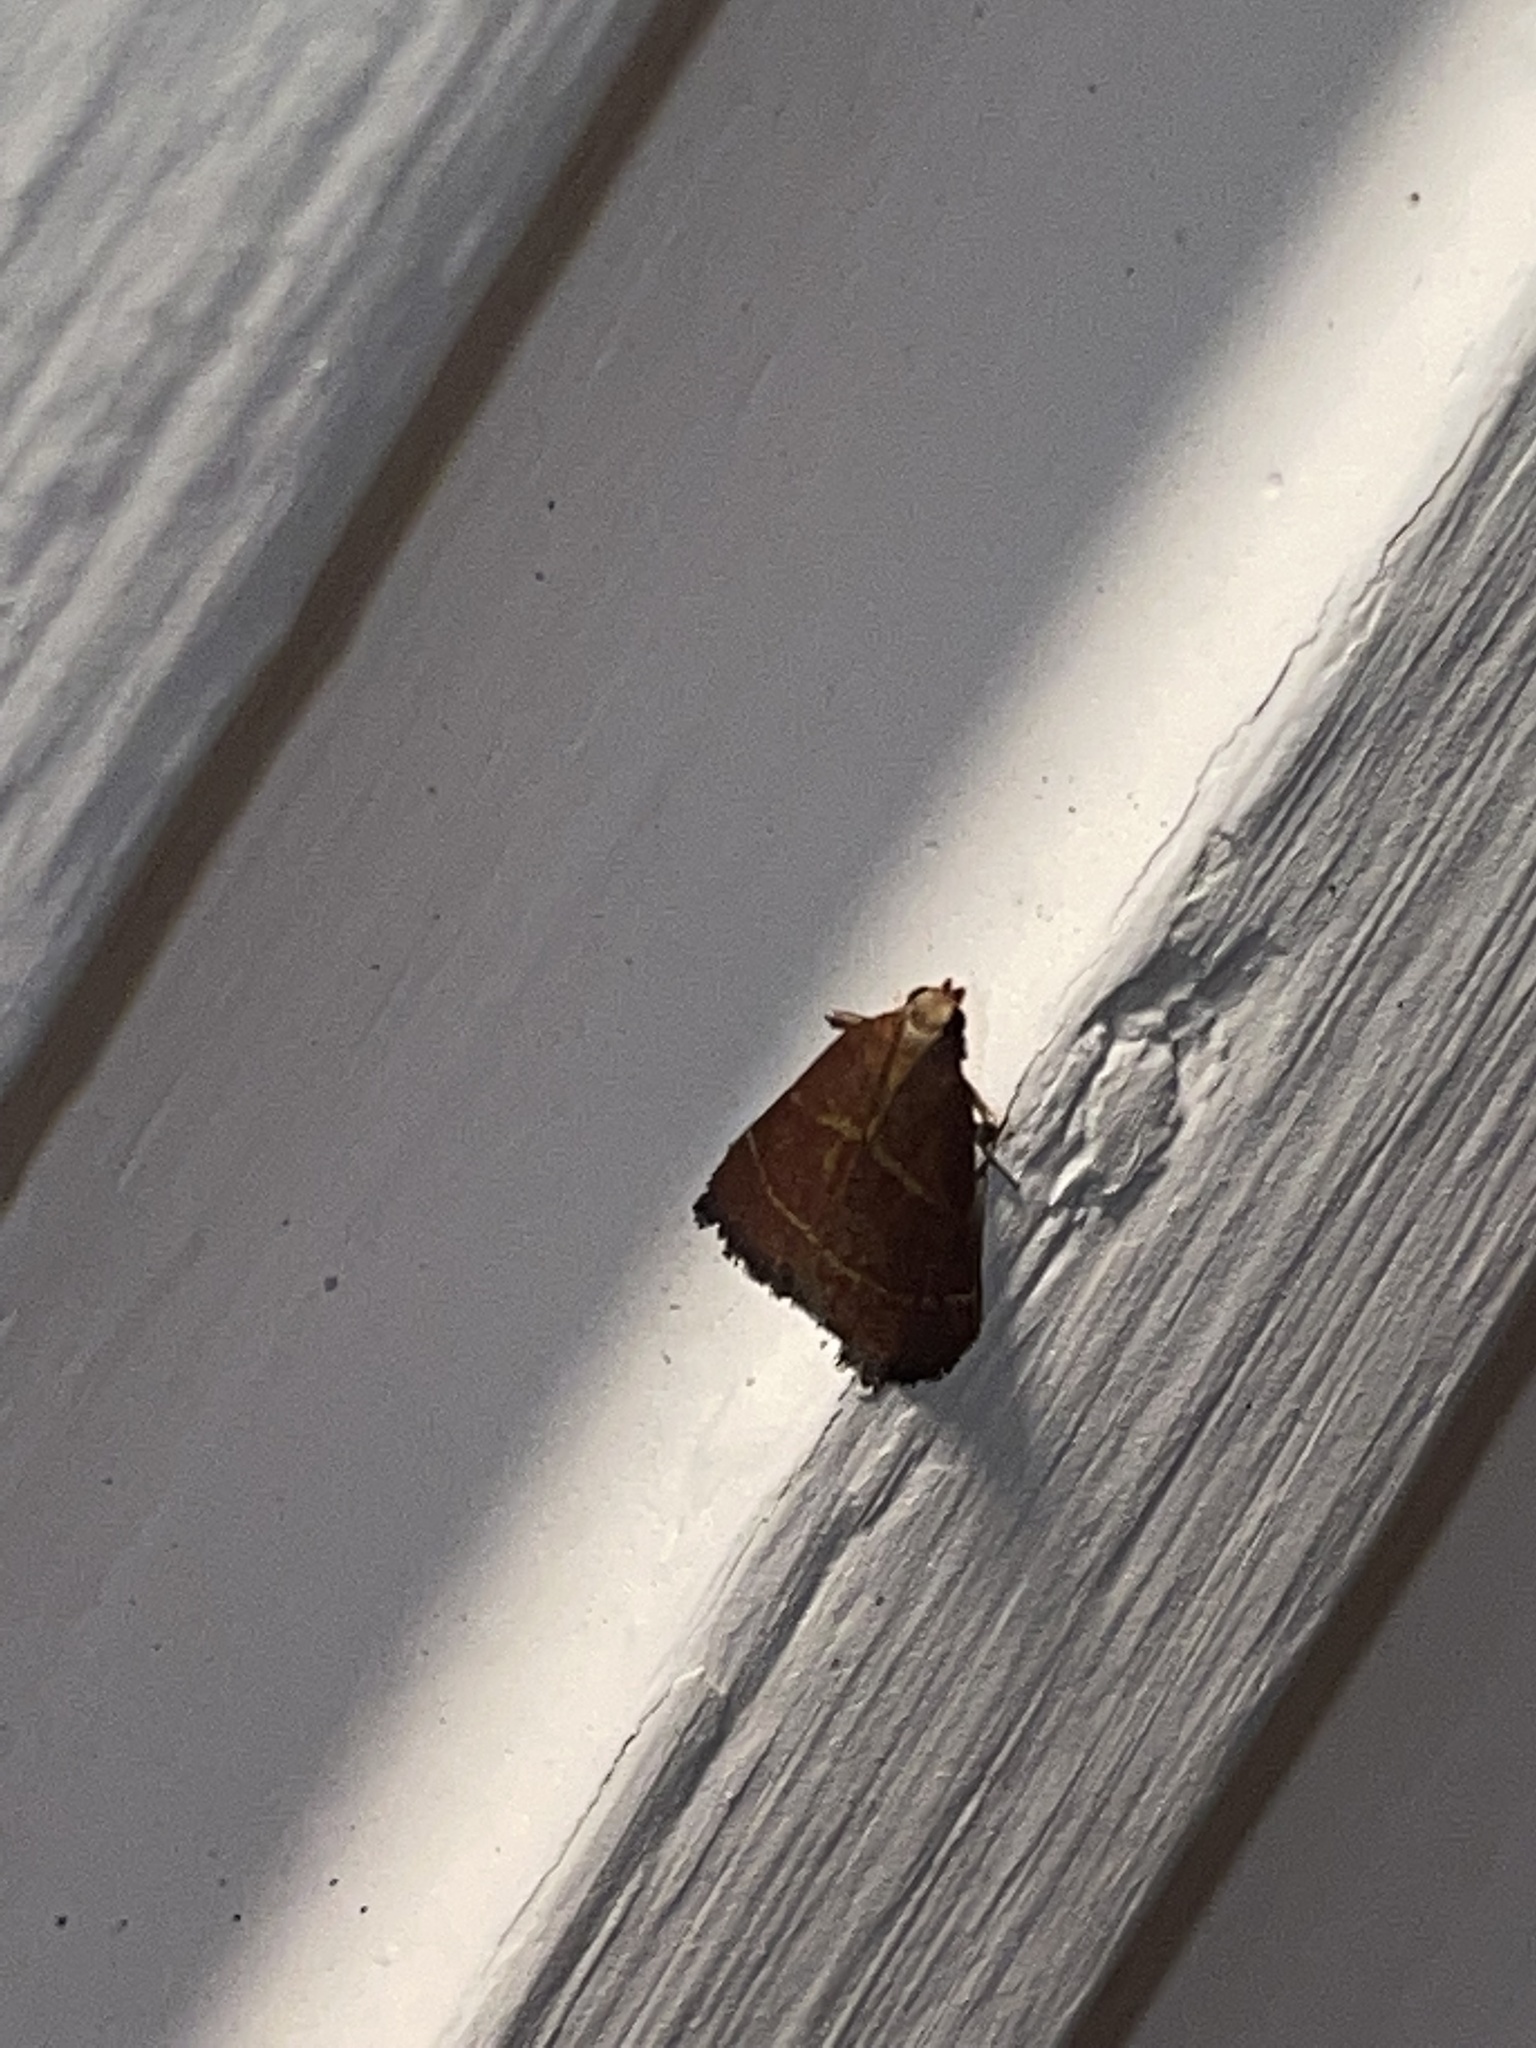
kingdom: Animalia
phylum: Arthropoda
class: Insecta
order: Lepidoptera
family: Pyralidae
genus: Arta
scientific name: Arta statalis
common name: Posturing arta moth
